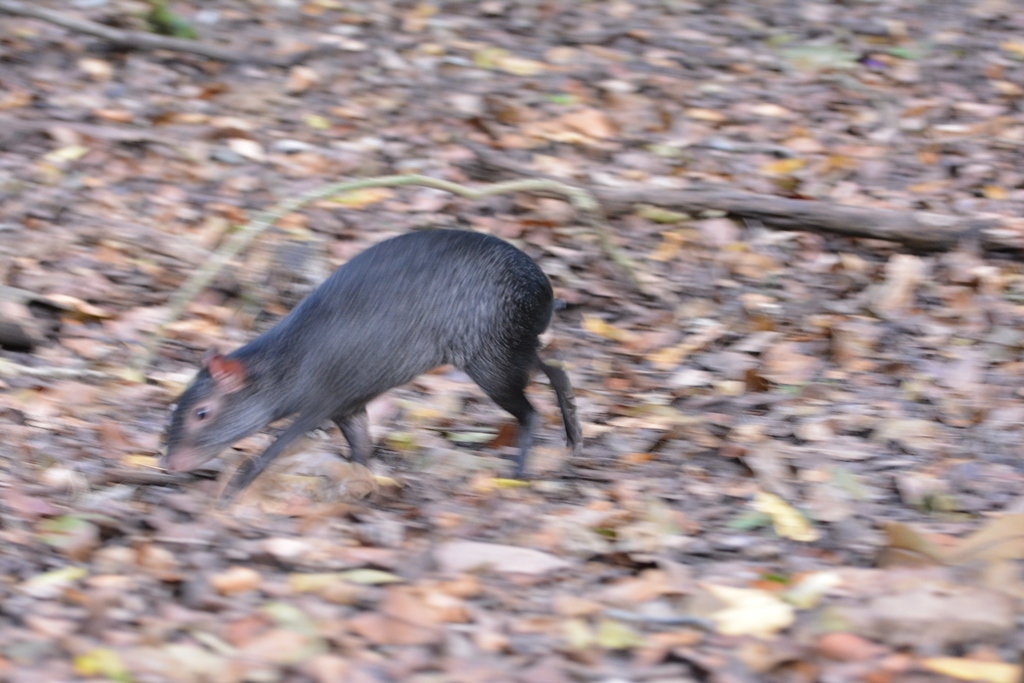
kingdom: Animalia
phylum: Chordata
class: Mammalia
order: Rodentia
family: Dasyproctidae
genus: Dasyprocta
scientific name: Dasyprocta mexicana
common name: Mexican agouti
